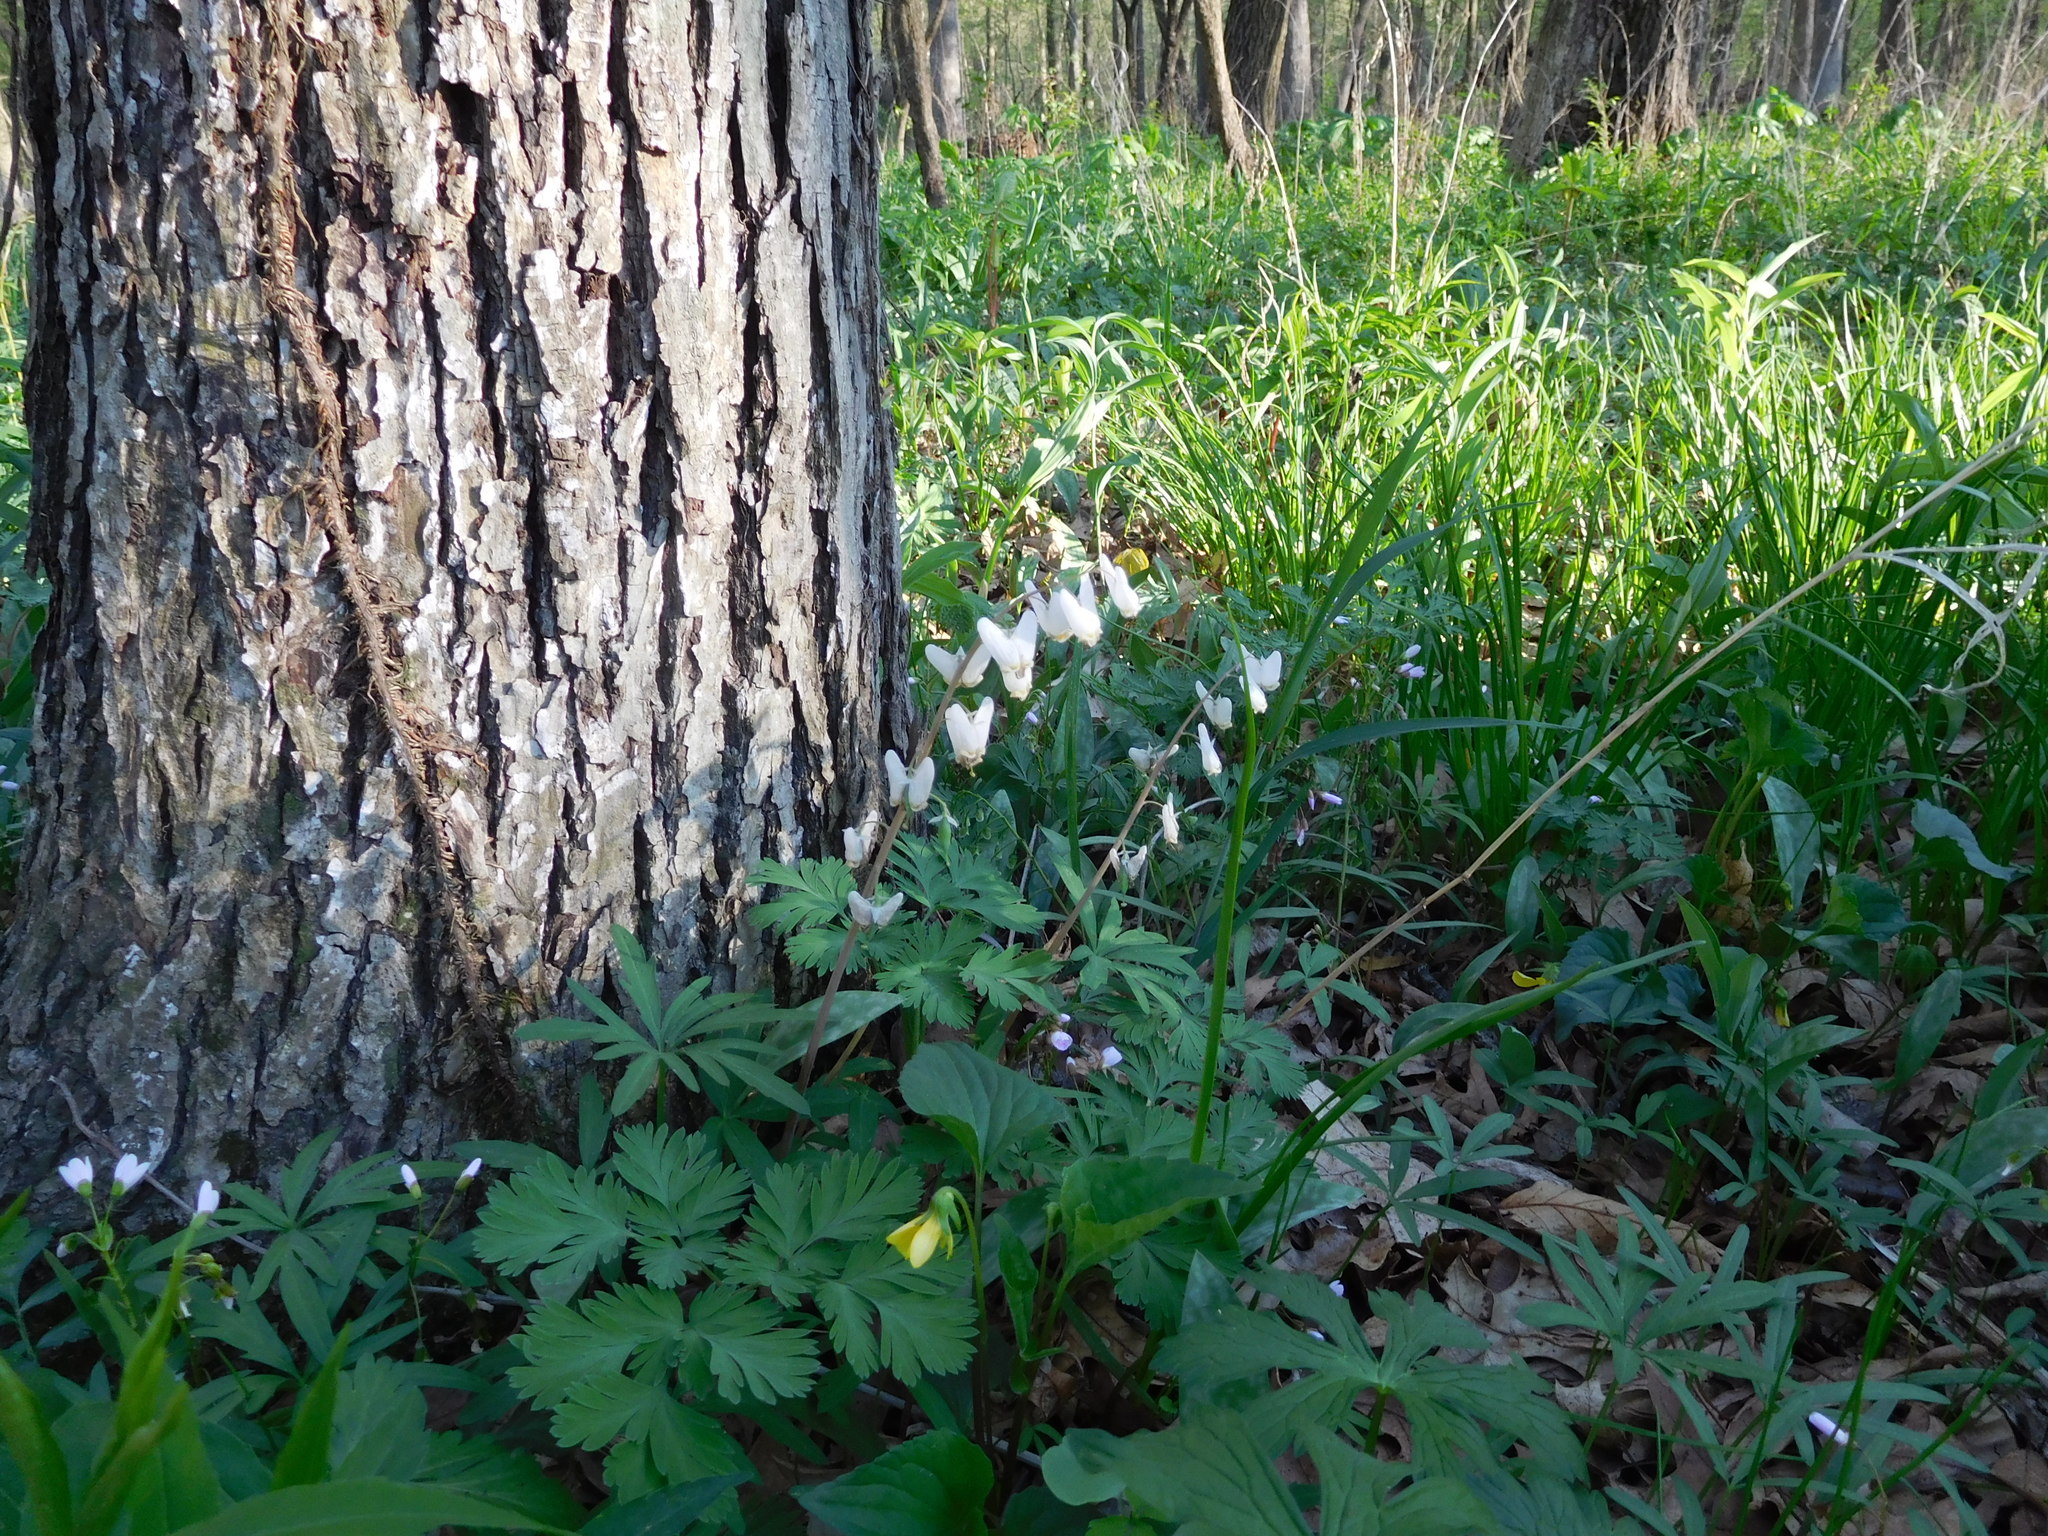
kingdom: Plantae
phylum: Tracheophyta
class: Magnoliopsida
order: Ranunculales
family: Papaveraceae
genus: Dicentra
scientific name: Dicentra cucullaria
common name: Dutchman's breeches
